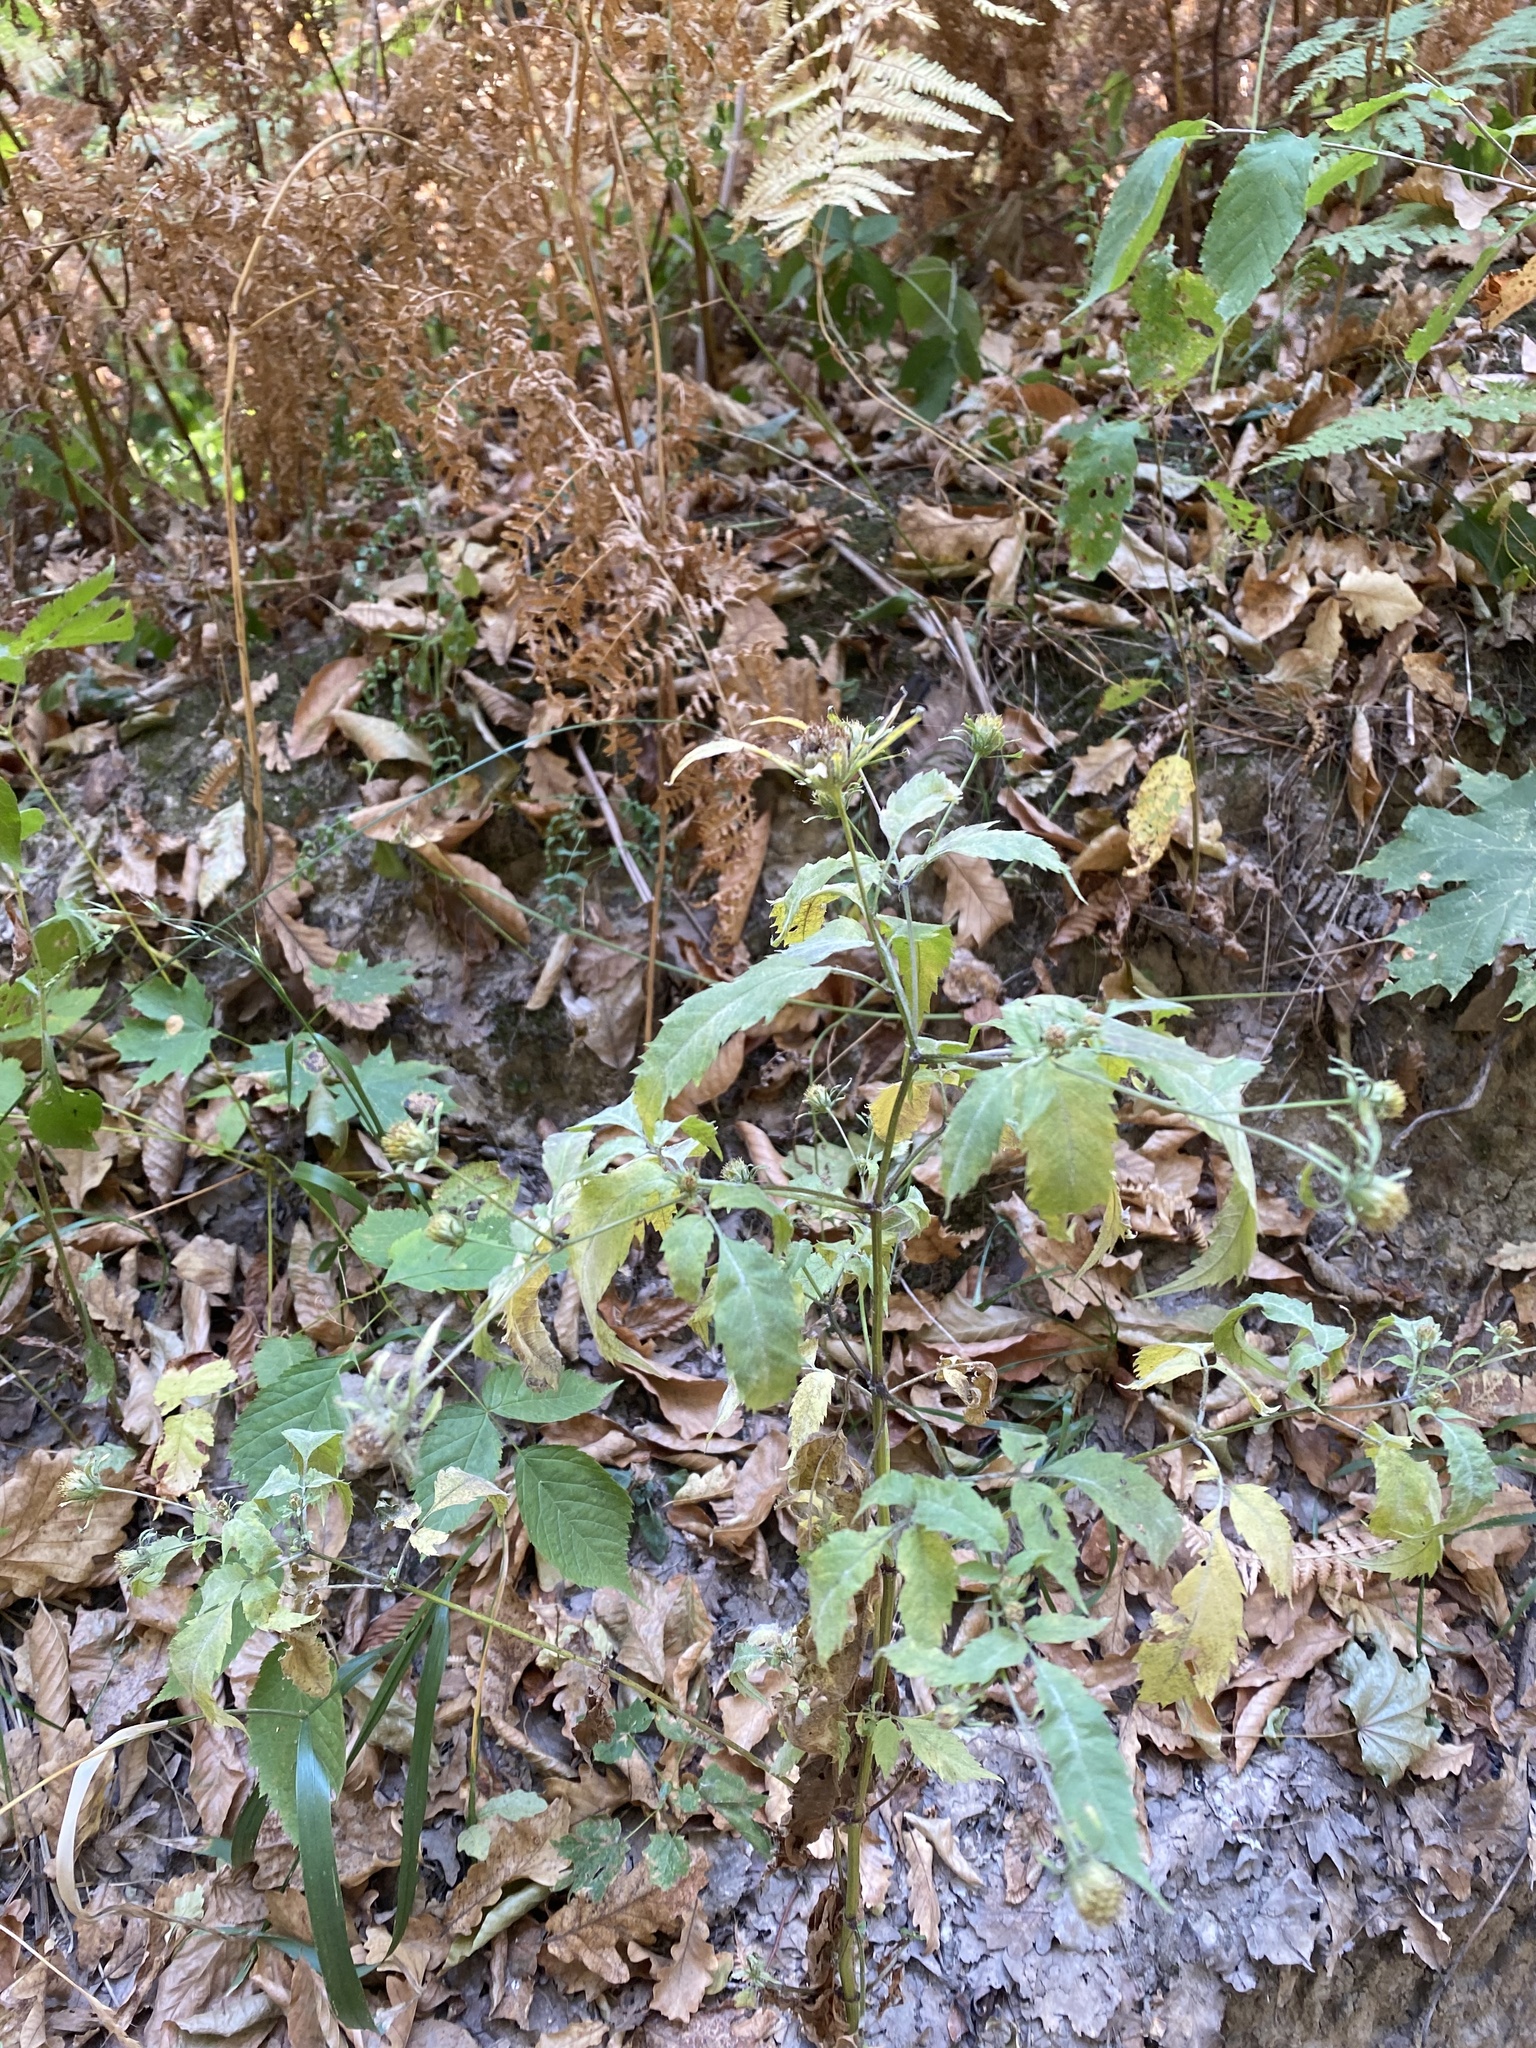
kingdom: Plantae
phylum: Tracheophyta
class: Magnoliopsida
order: Asterales
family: Asteraceae
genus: Bidens
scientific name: Bidens frondosa
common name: Beggarticks
